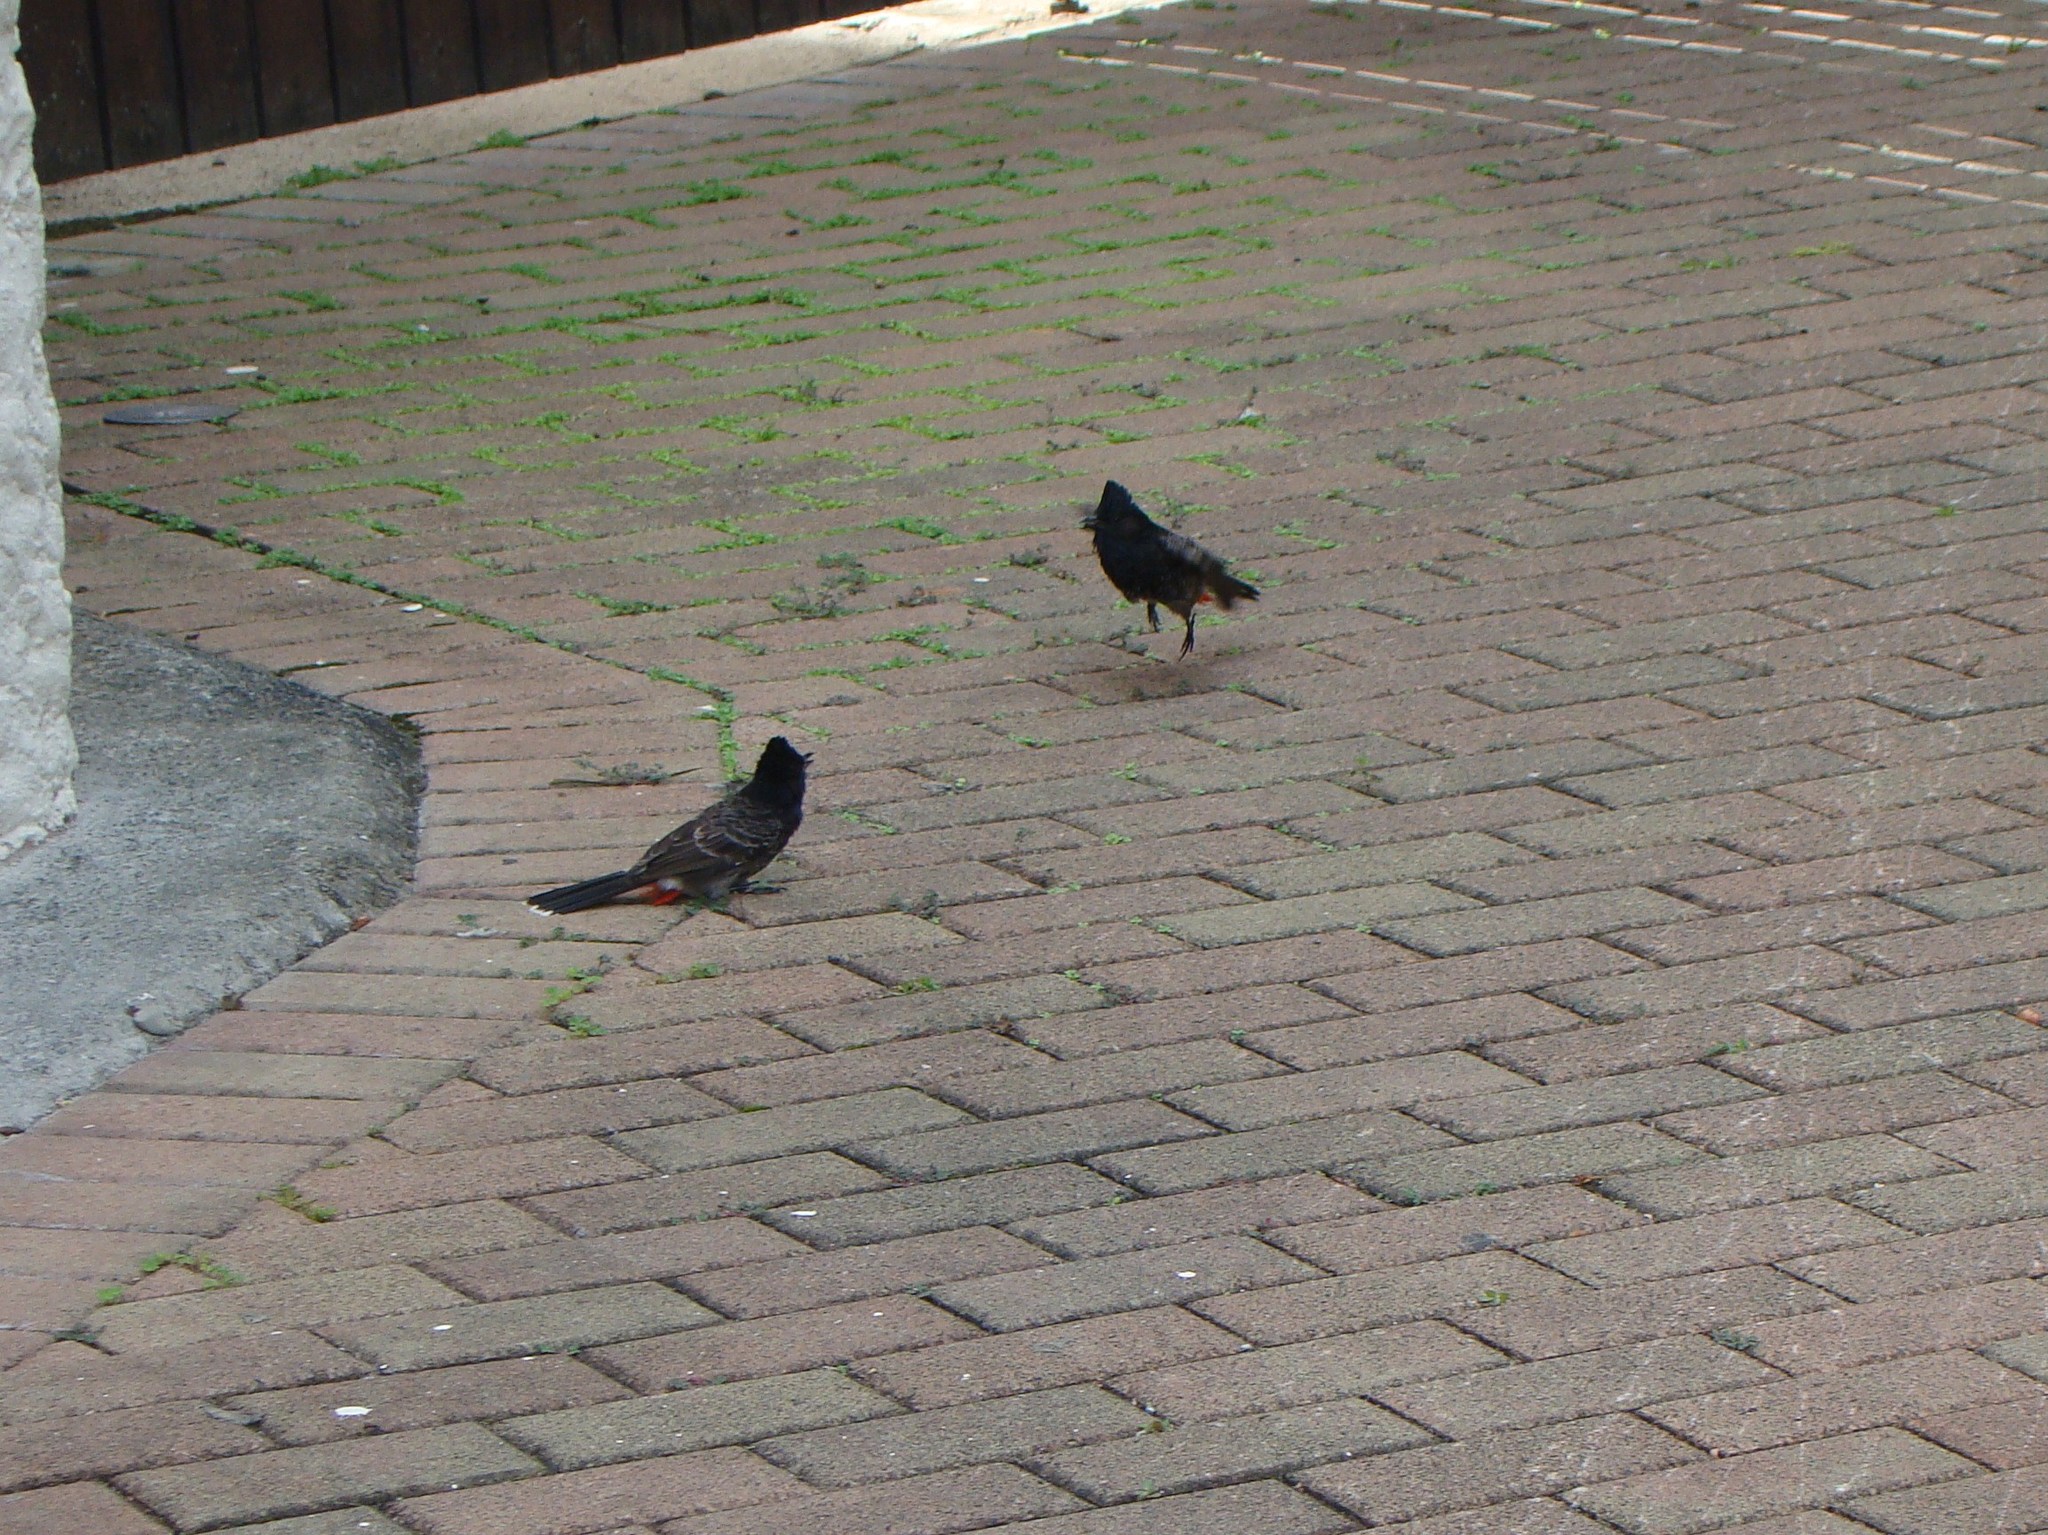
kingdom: Animalia
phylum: Chordata
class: Aves
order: Passeriformes
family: Pycnonotidae
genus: Pycnonotus
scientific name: Pycnonotus cafer
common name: Red-vented bulbul
